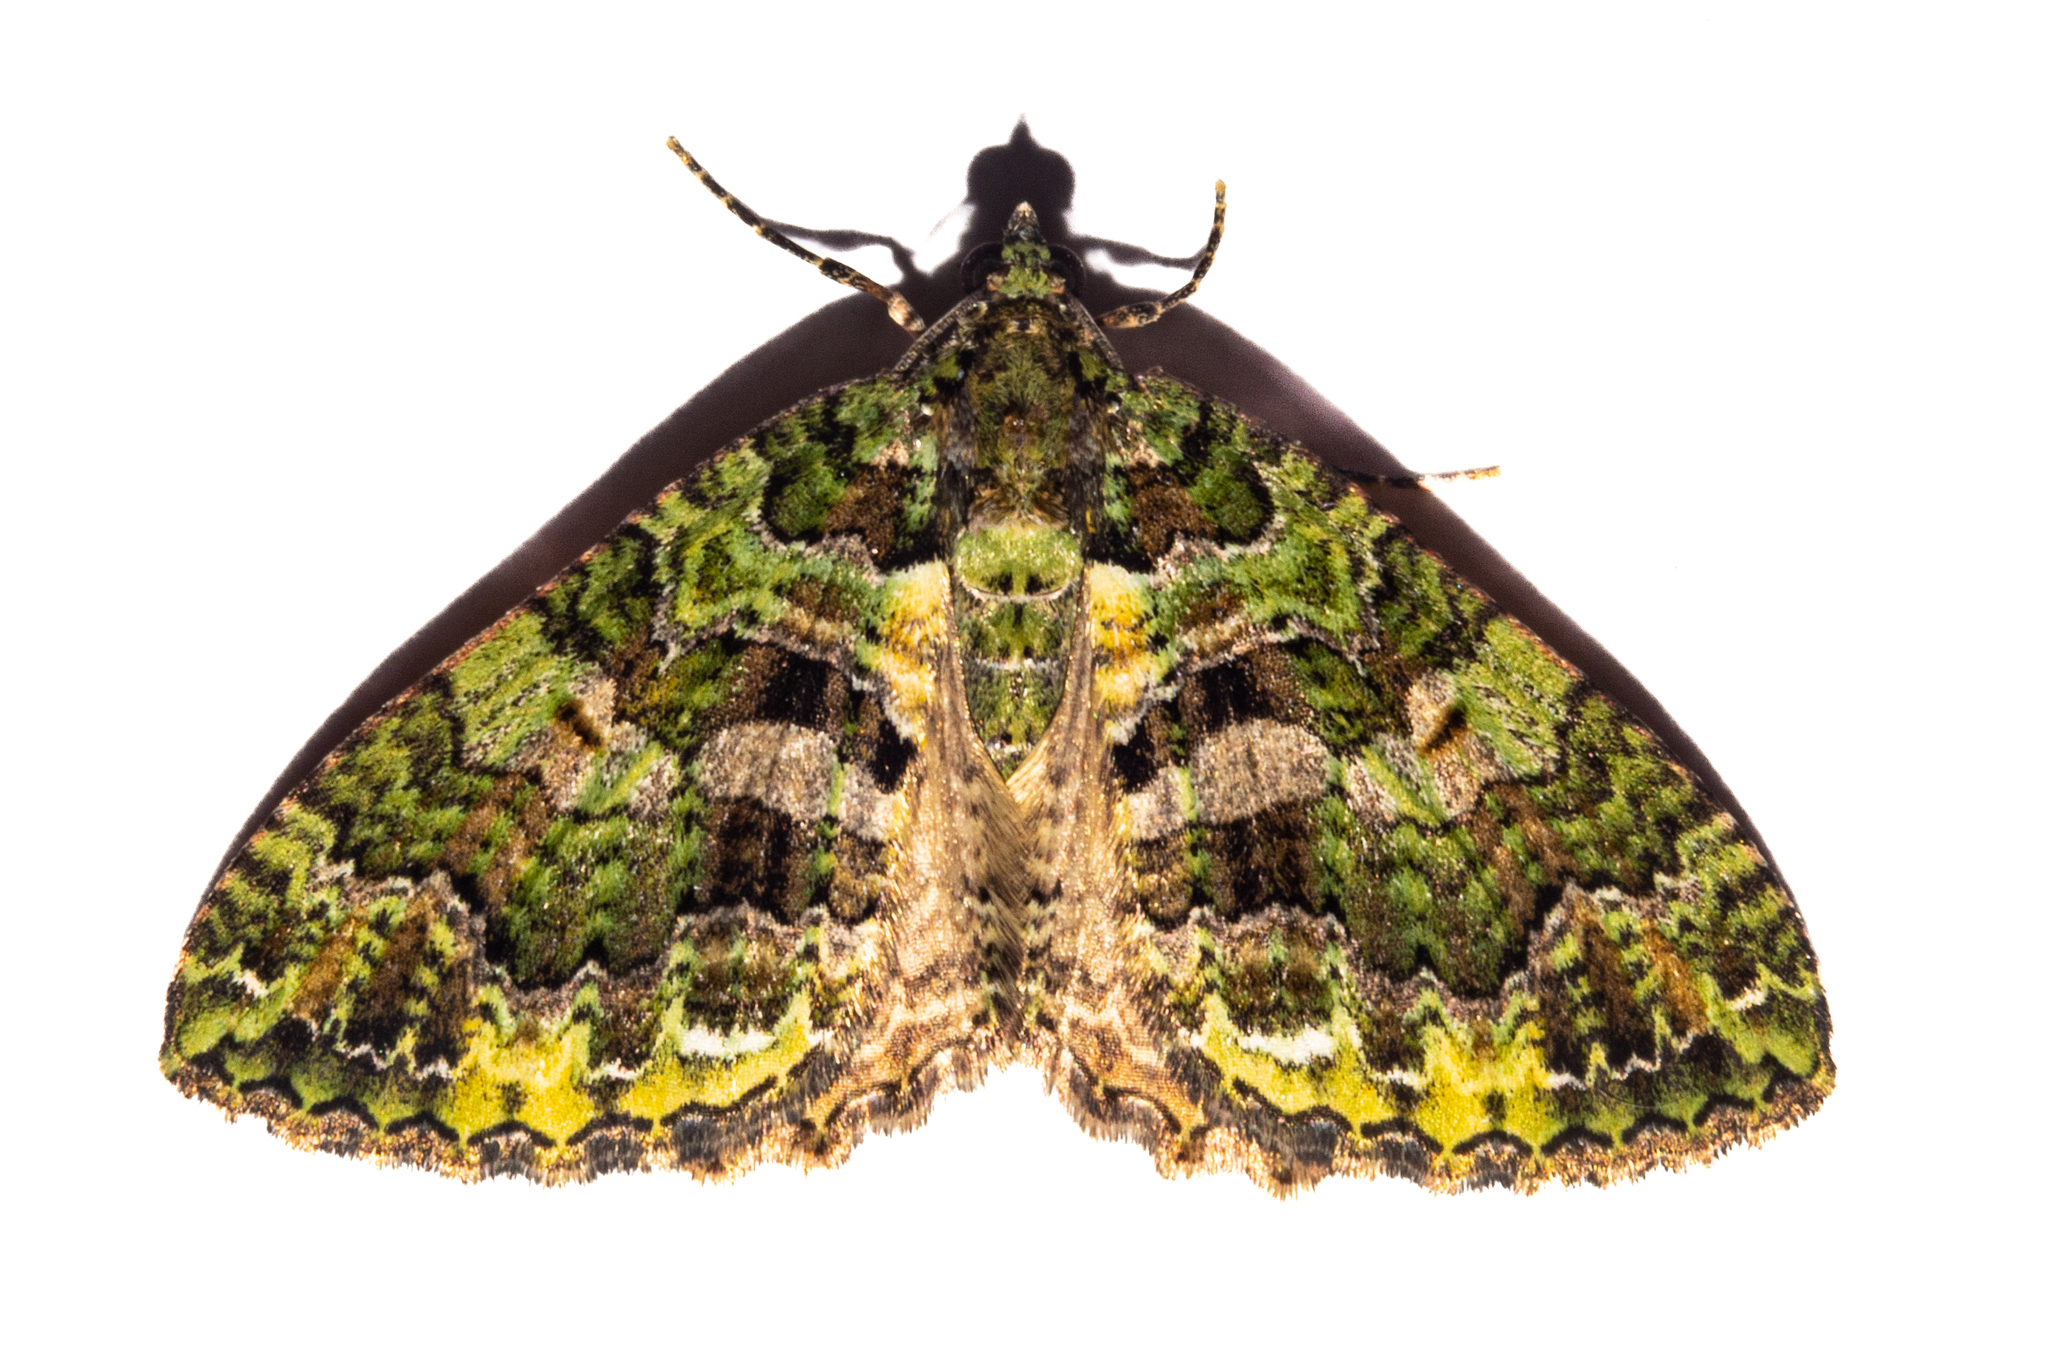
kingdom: Animalia
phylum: Arthropoda
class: Insecta
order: Lepidoptera
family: Geometridae
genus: Austrocidaria
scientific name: Austrocidaria similata
